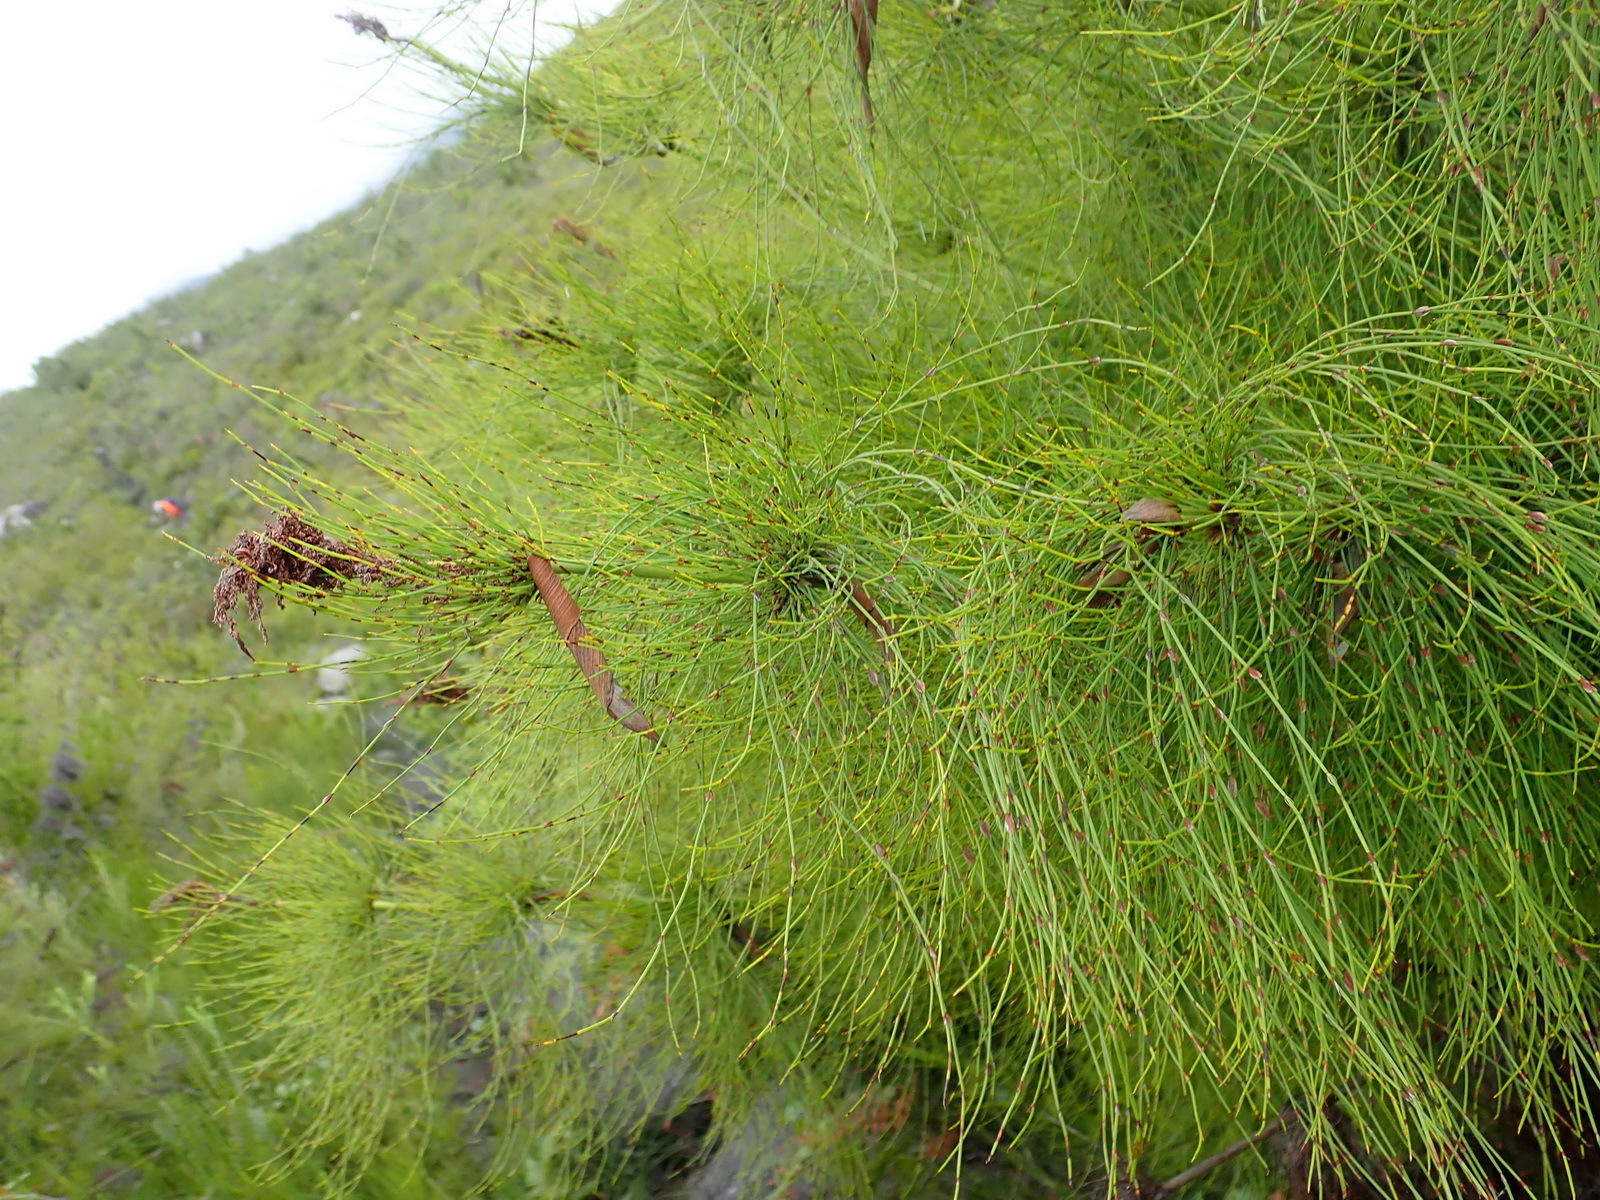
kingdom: Plantae
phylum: Tracheophyta
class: Liliopsida
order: Poales
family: Restionaceae
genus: Elegia
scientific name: Elegia capensis
